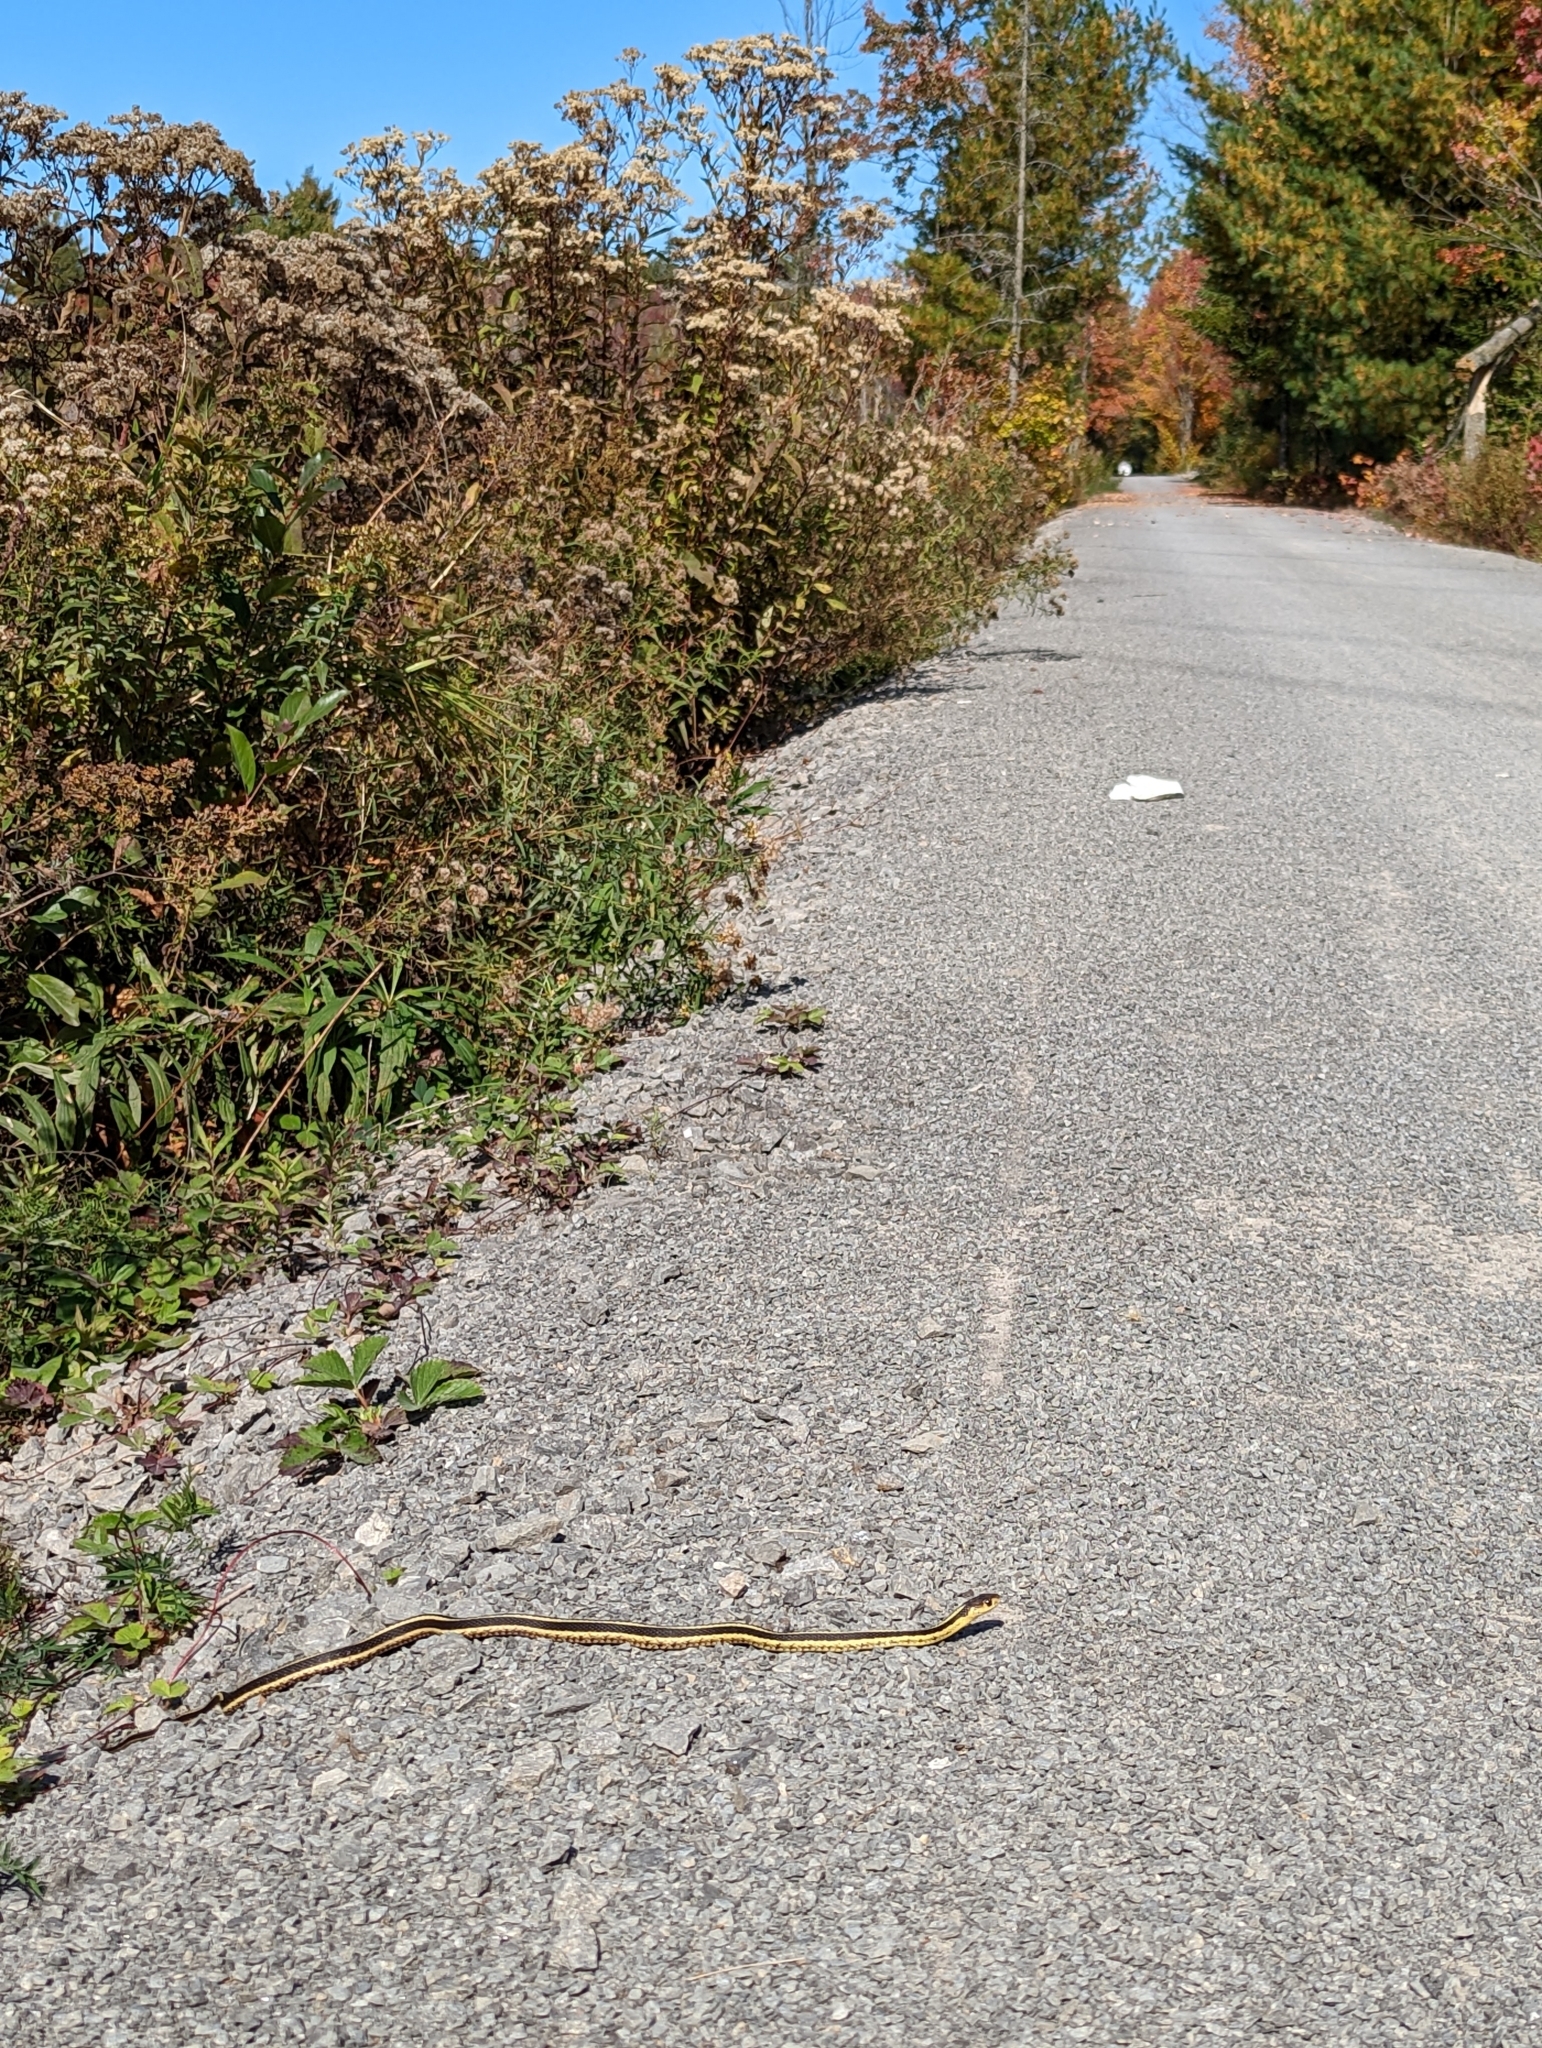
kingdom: Animalia
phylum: Chordata
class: Squamata
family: Colubridae
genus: Thamnophis
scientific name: Thamnophis sirtalis
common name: Common garter snake
